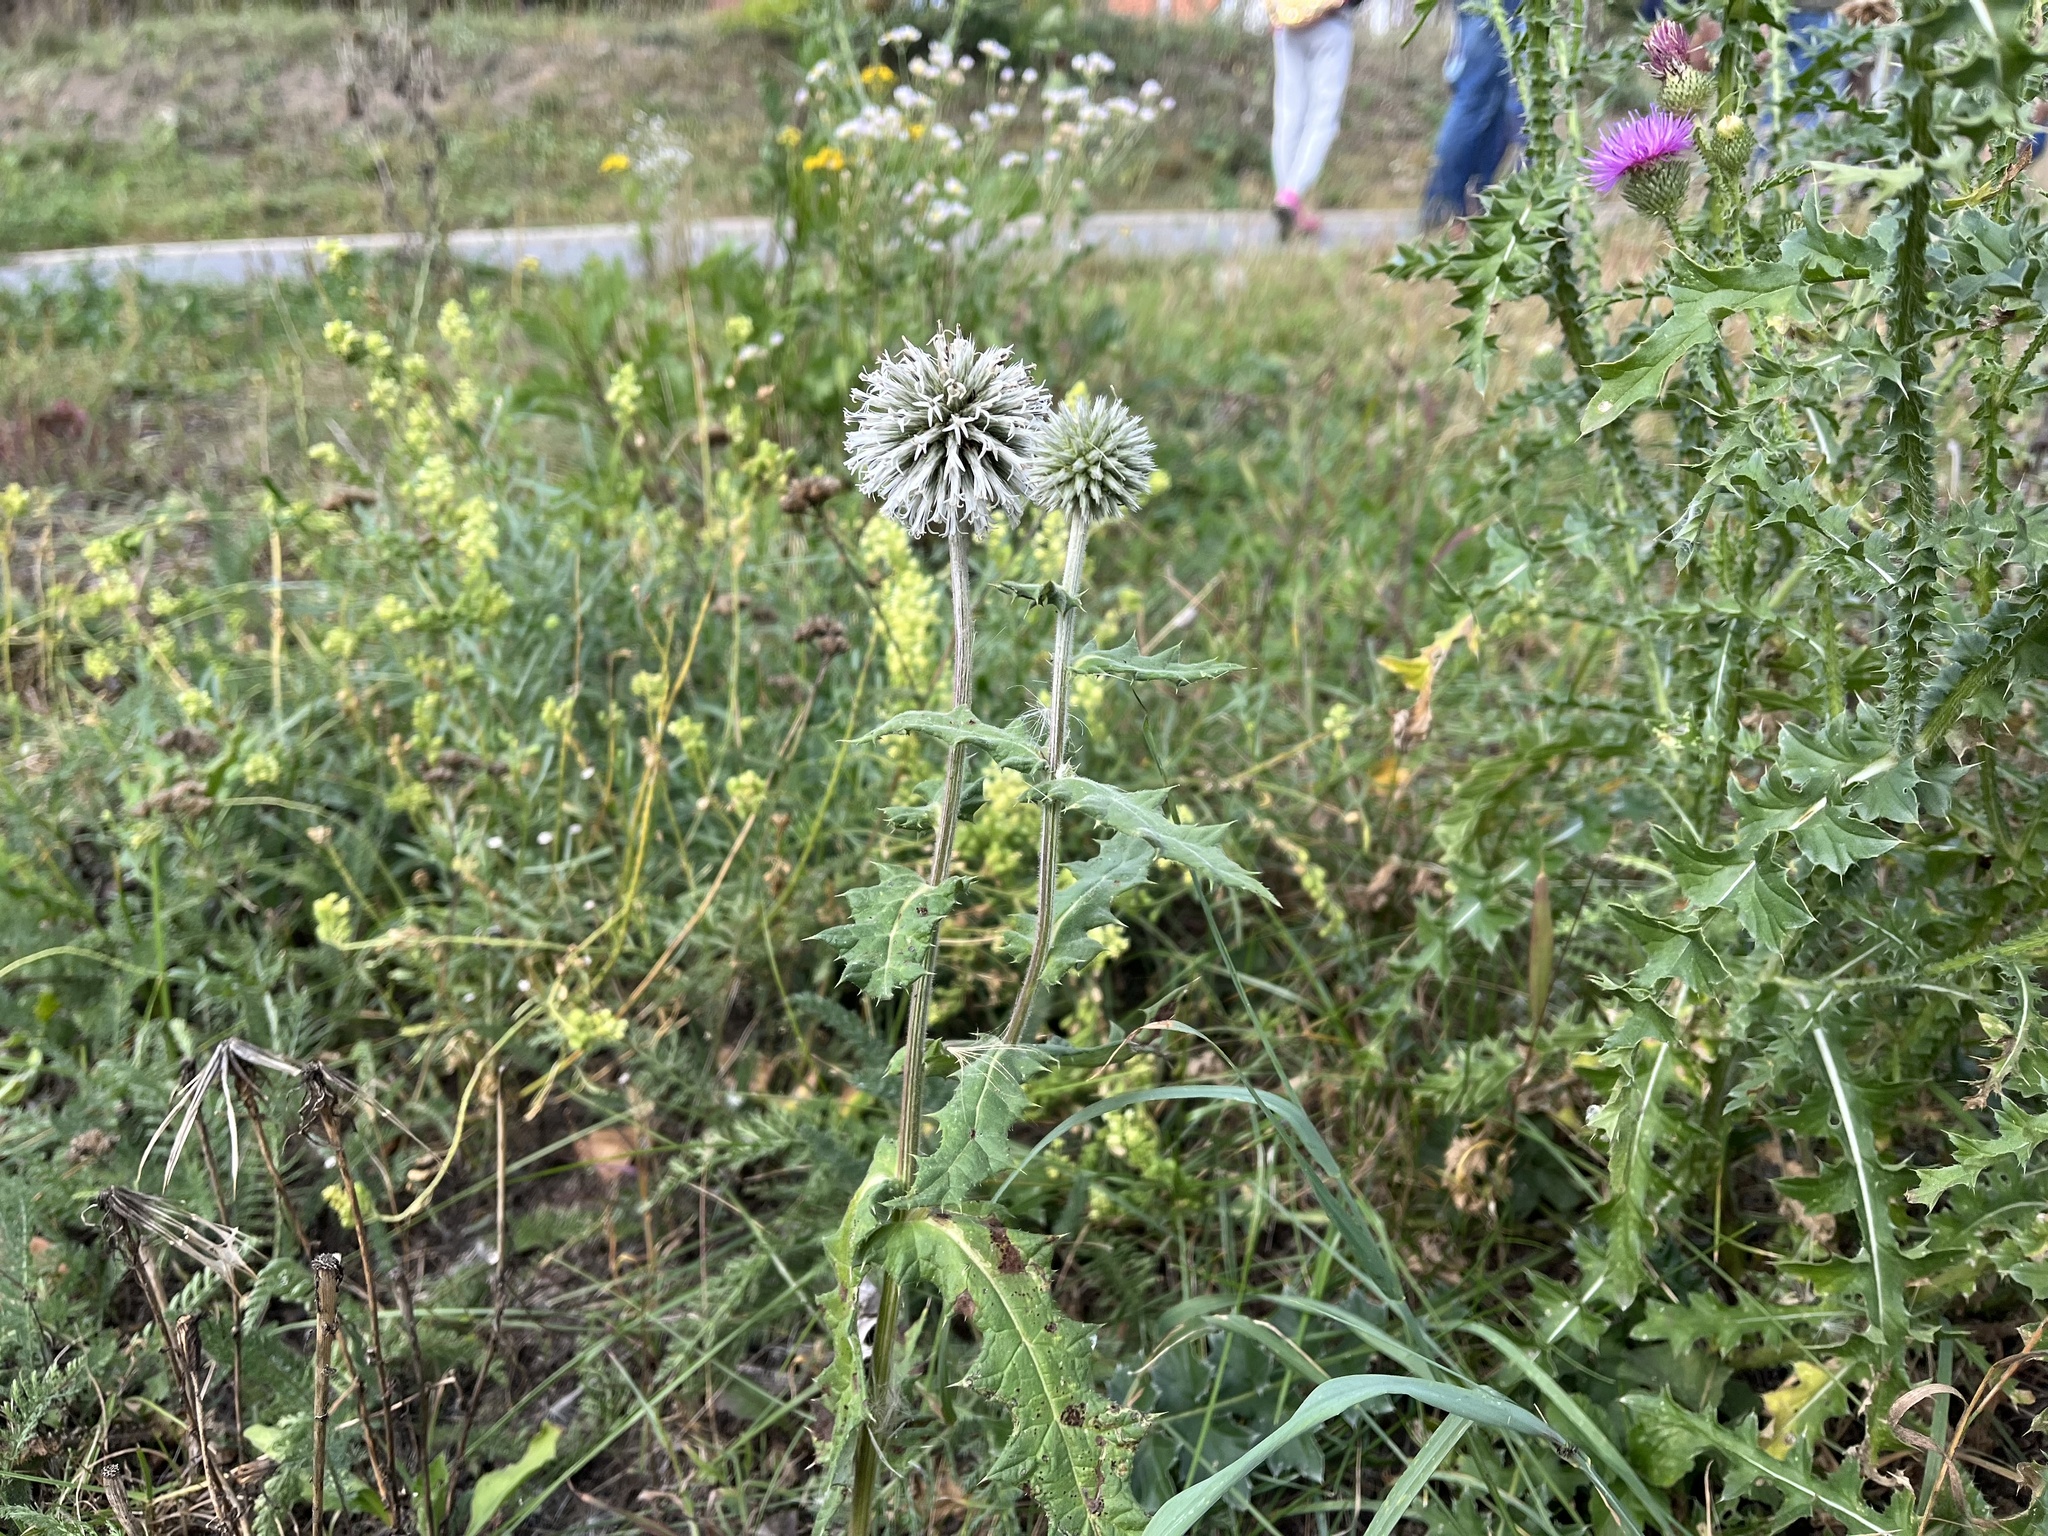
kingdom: Plantae
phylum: Tracheophyta
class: Magnoliopsida
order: Asterales
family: Asteraceae
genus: Echinops
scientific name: Echinops sphaerocephalus
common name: Glandular globe-thistle
